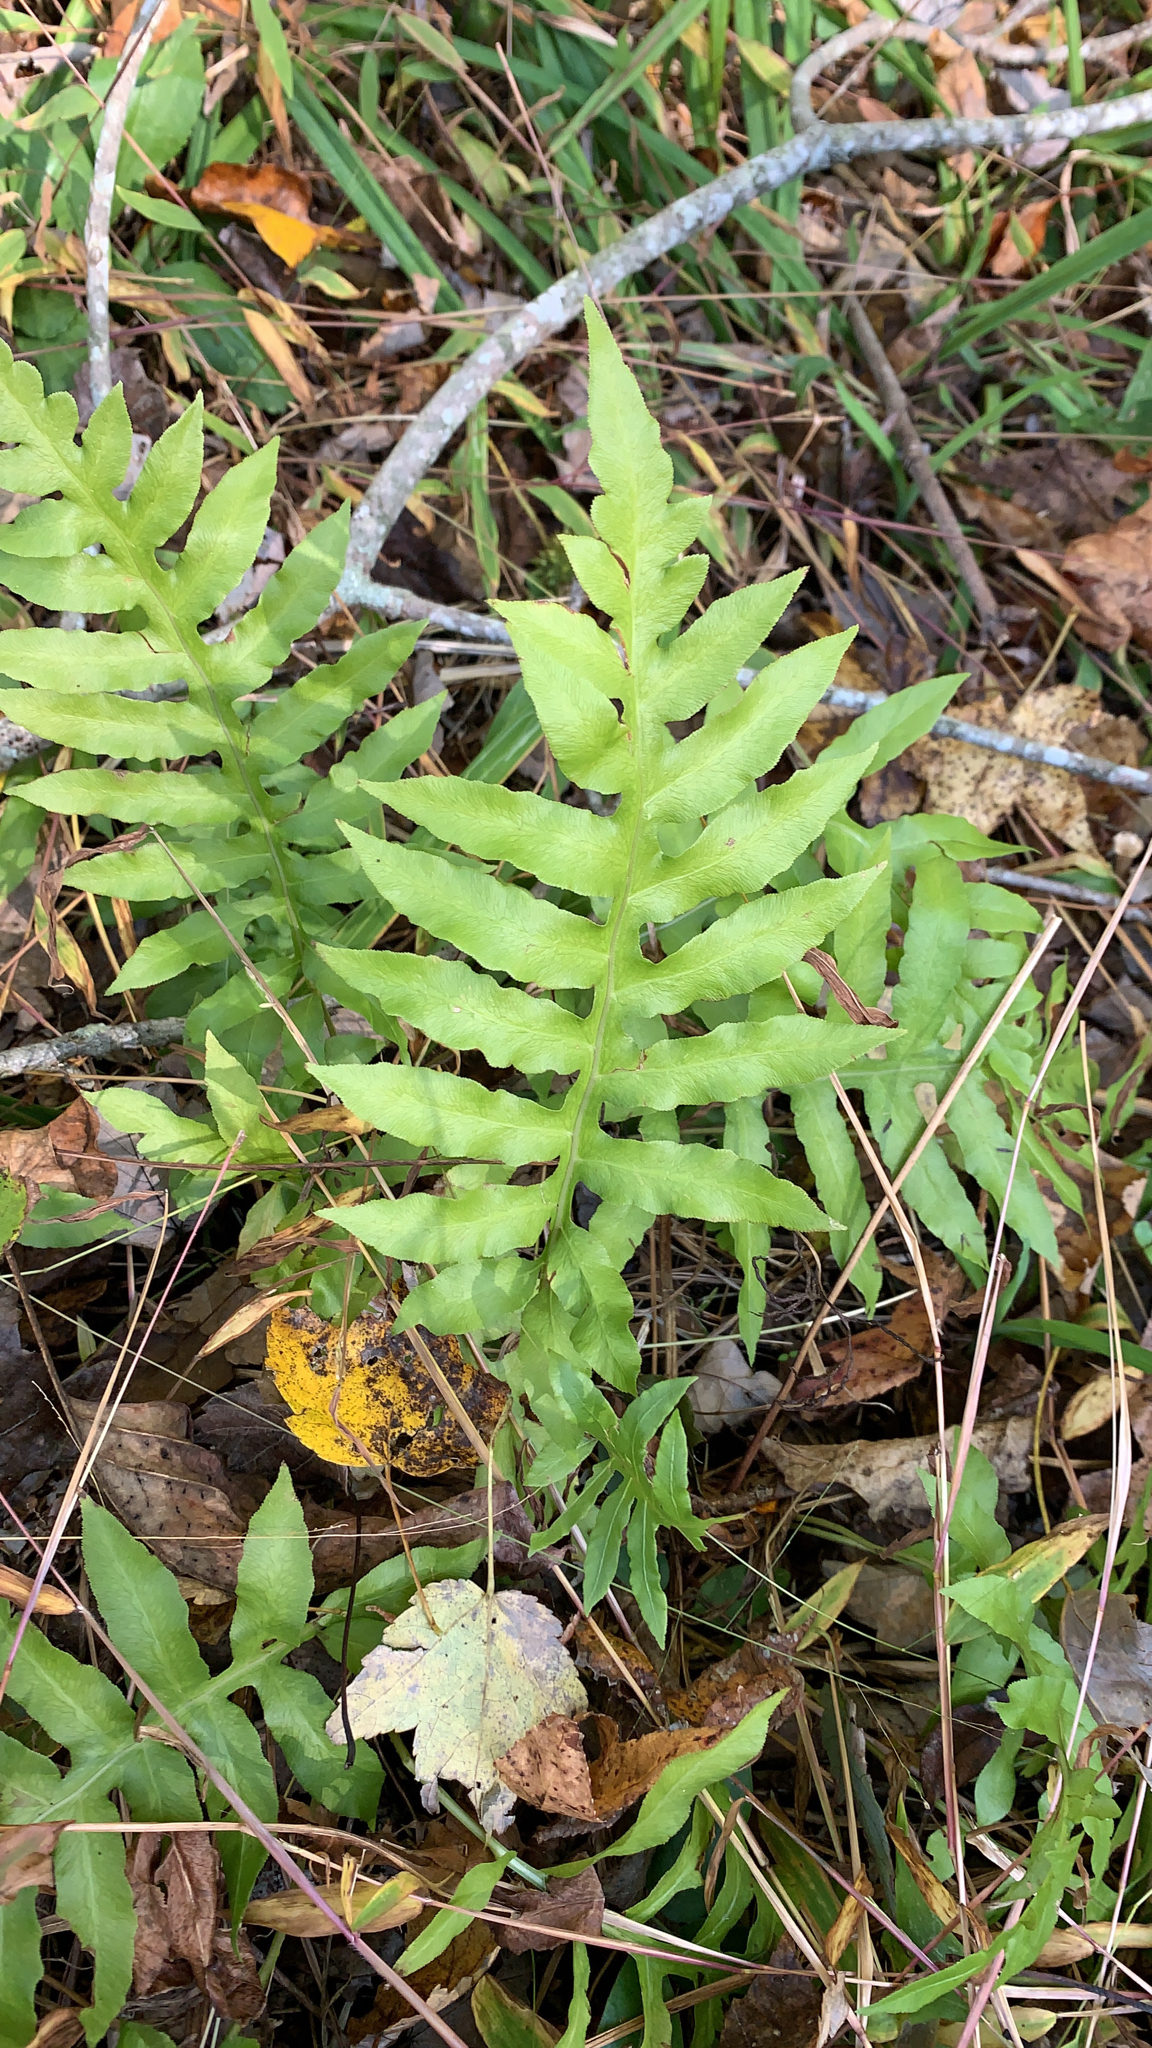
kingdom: Plantae
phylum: Tracheophyta
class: Polypodiopsida
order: Polypodiales
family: Blechnaceae
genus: Lorinseria
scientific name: Lorinseria areolata
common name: Dwarf chain fern
